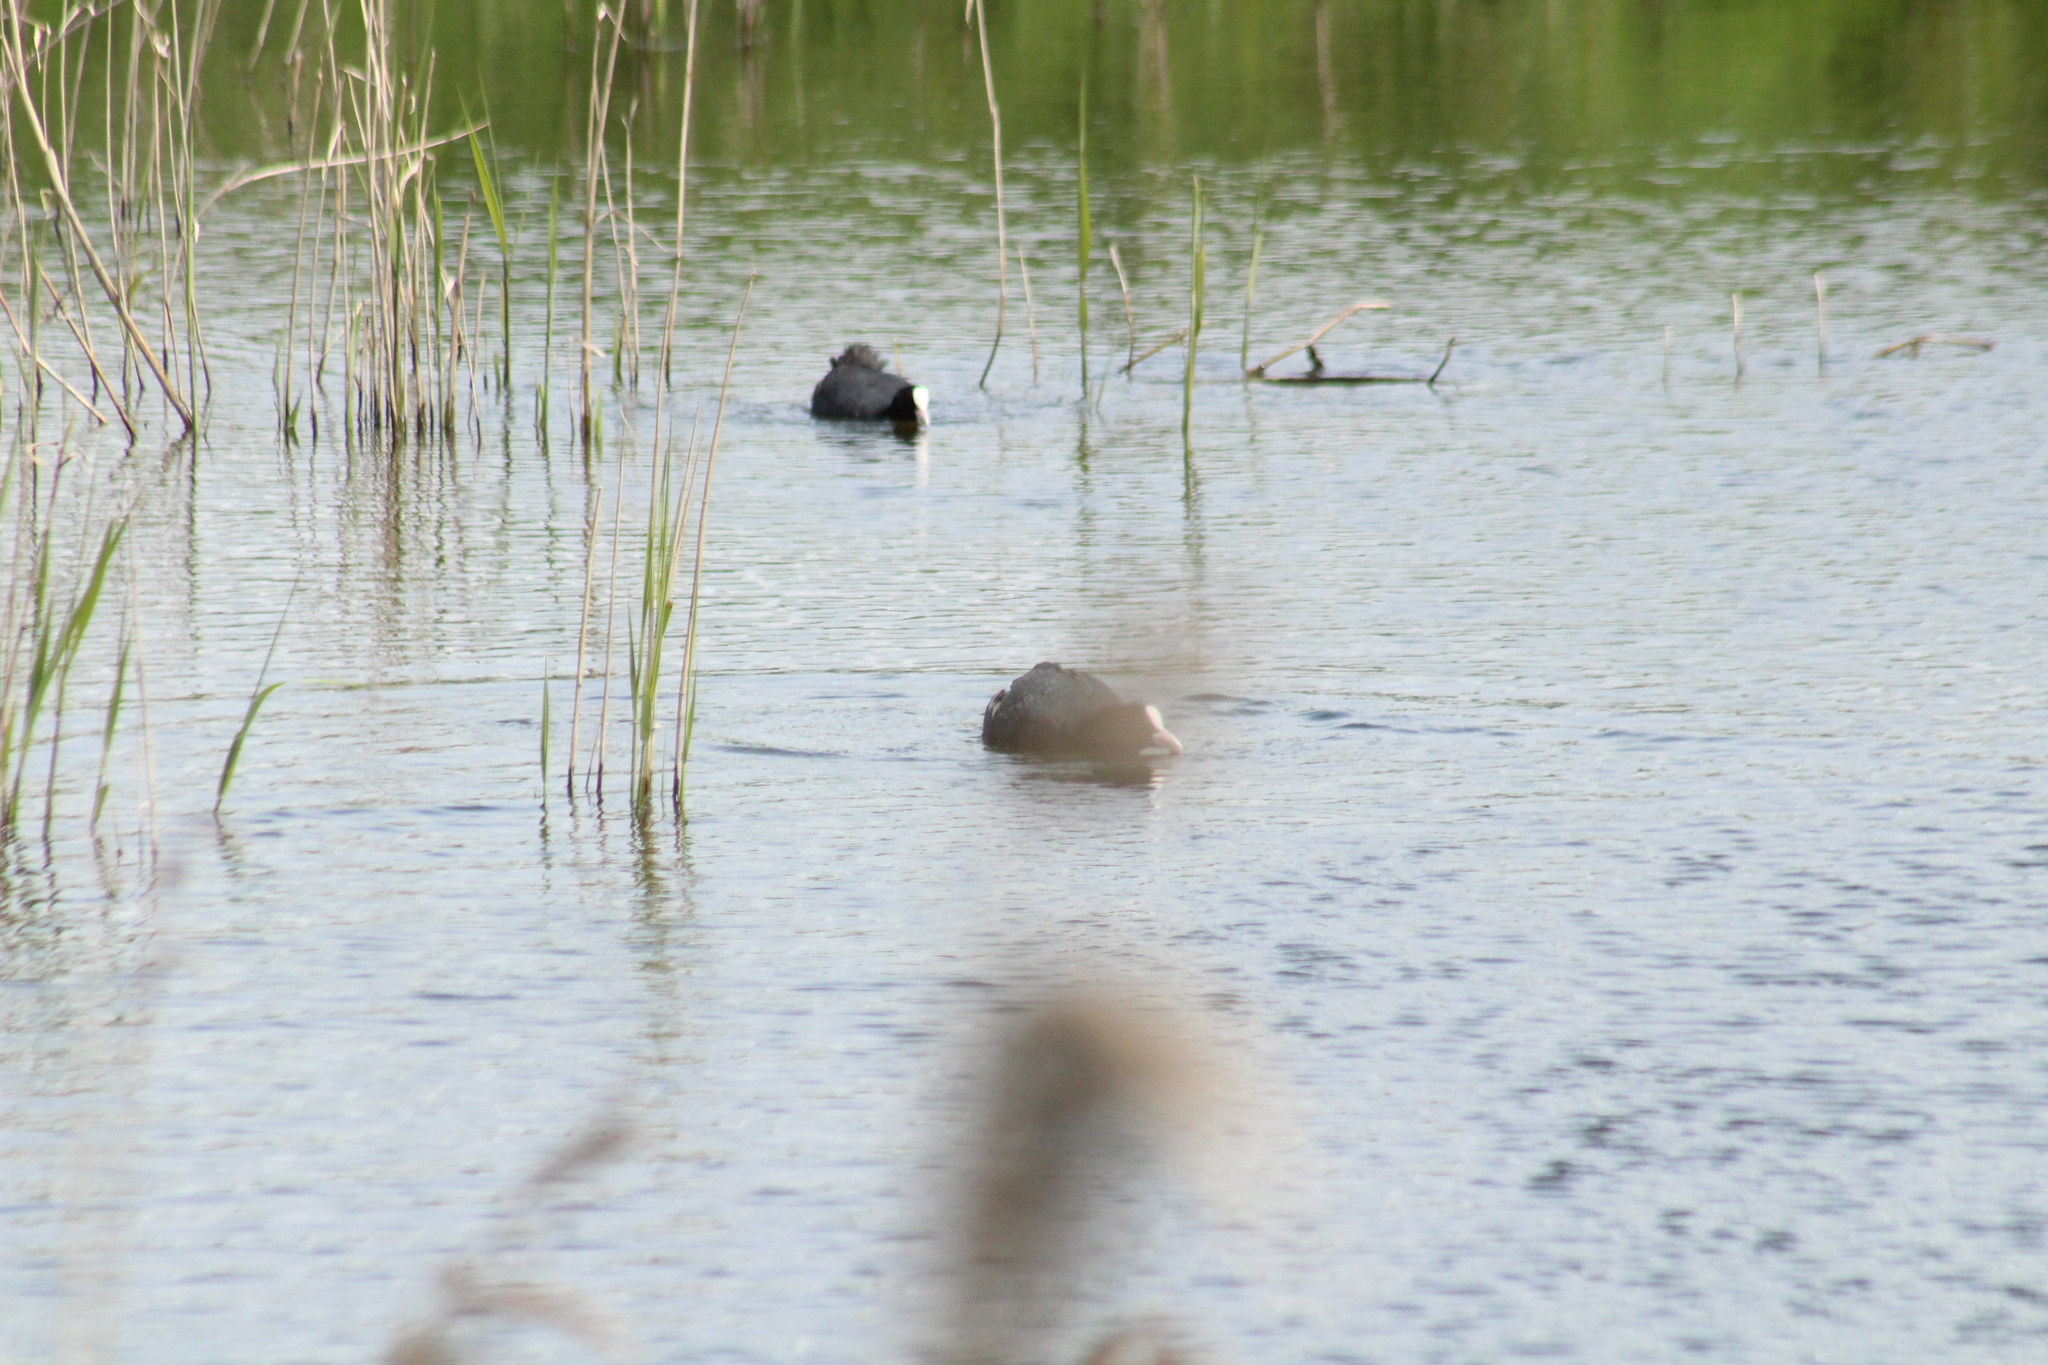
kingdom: Animalia
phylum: Chordata
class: Aves
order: Gruiformes
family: Rallidae
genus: Fulica
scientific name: Fulica atra
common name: Eurasian coot
